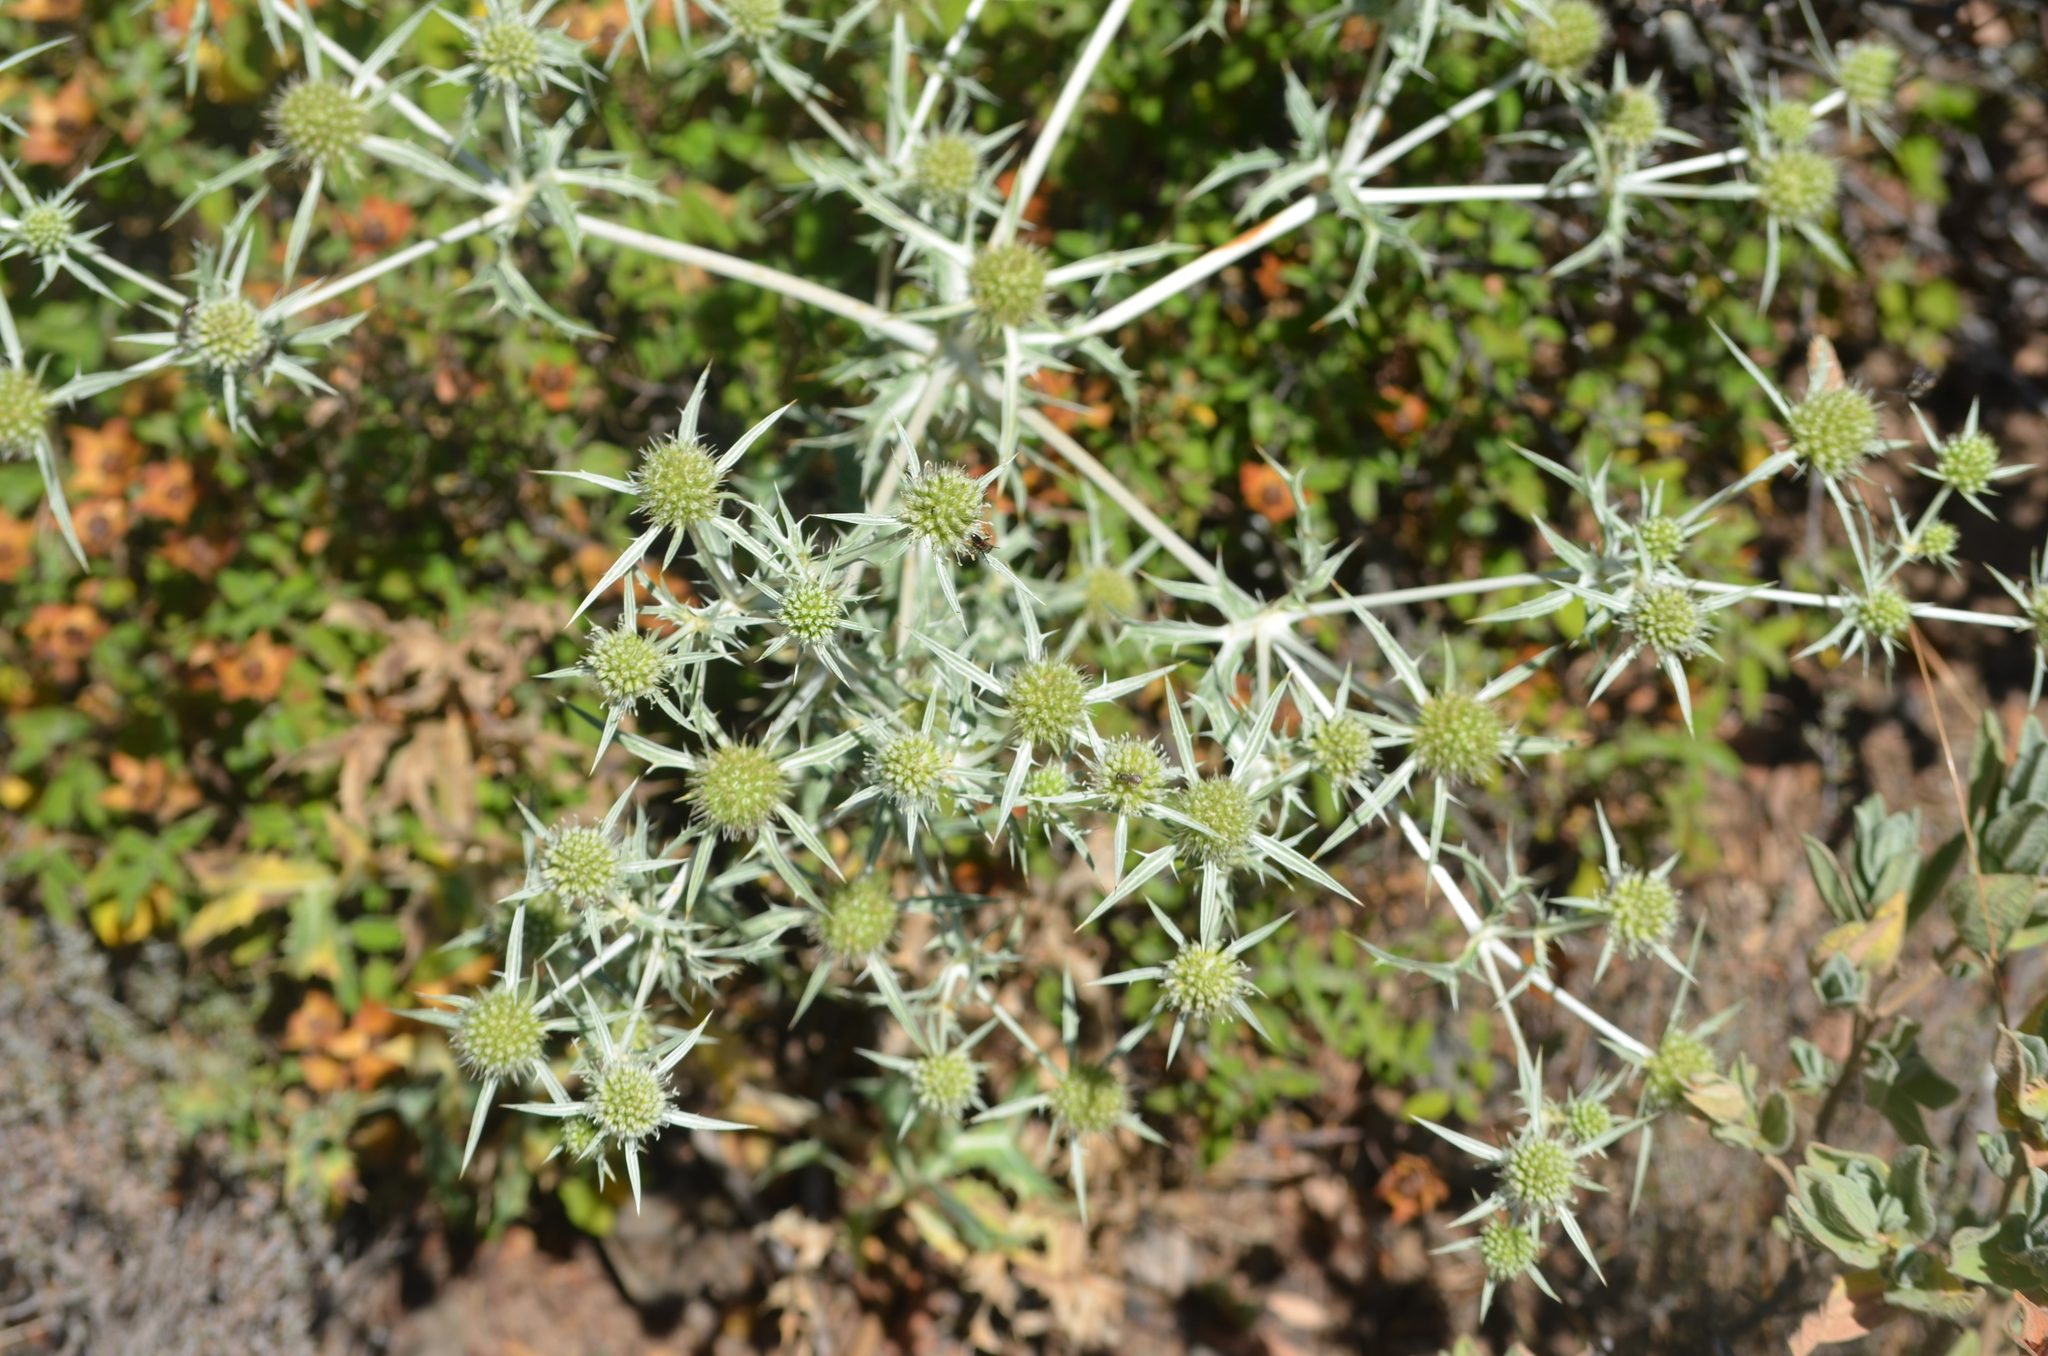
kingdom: Plantae
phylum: Tracheophyta
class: Magnoliopsida
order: Apiales
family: Apiaceae
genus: Eryngium
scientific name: Eryngium campestre
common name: Field eryngo
